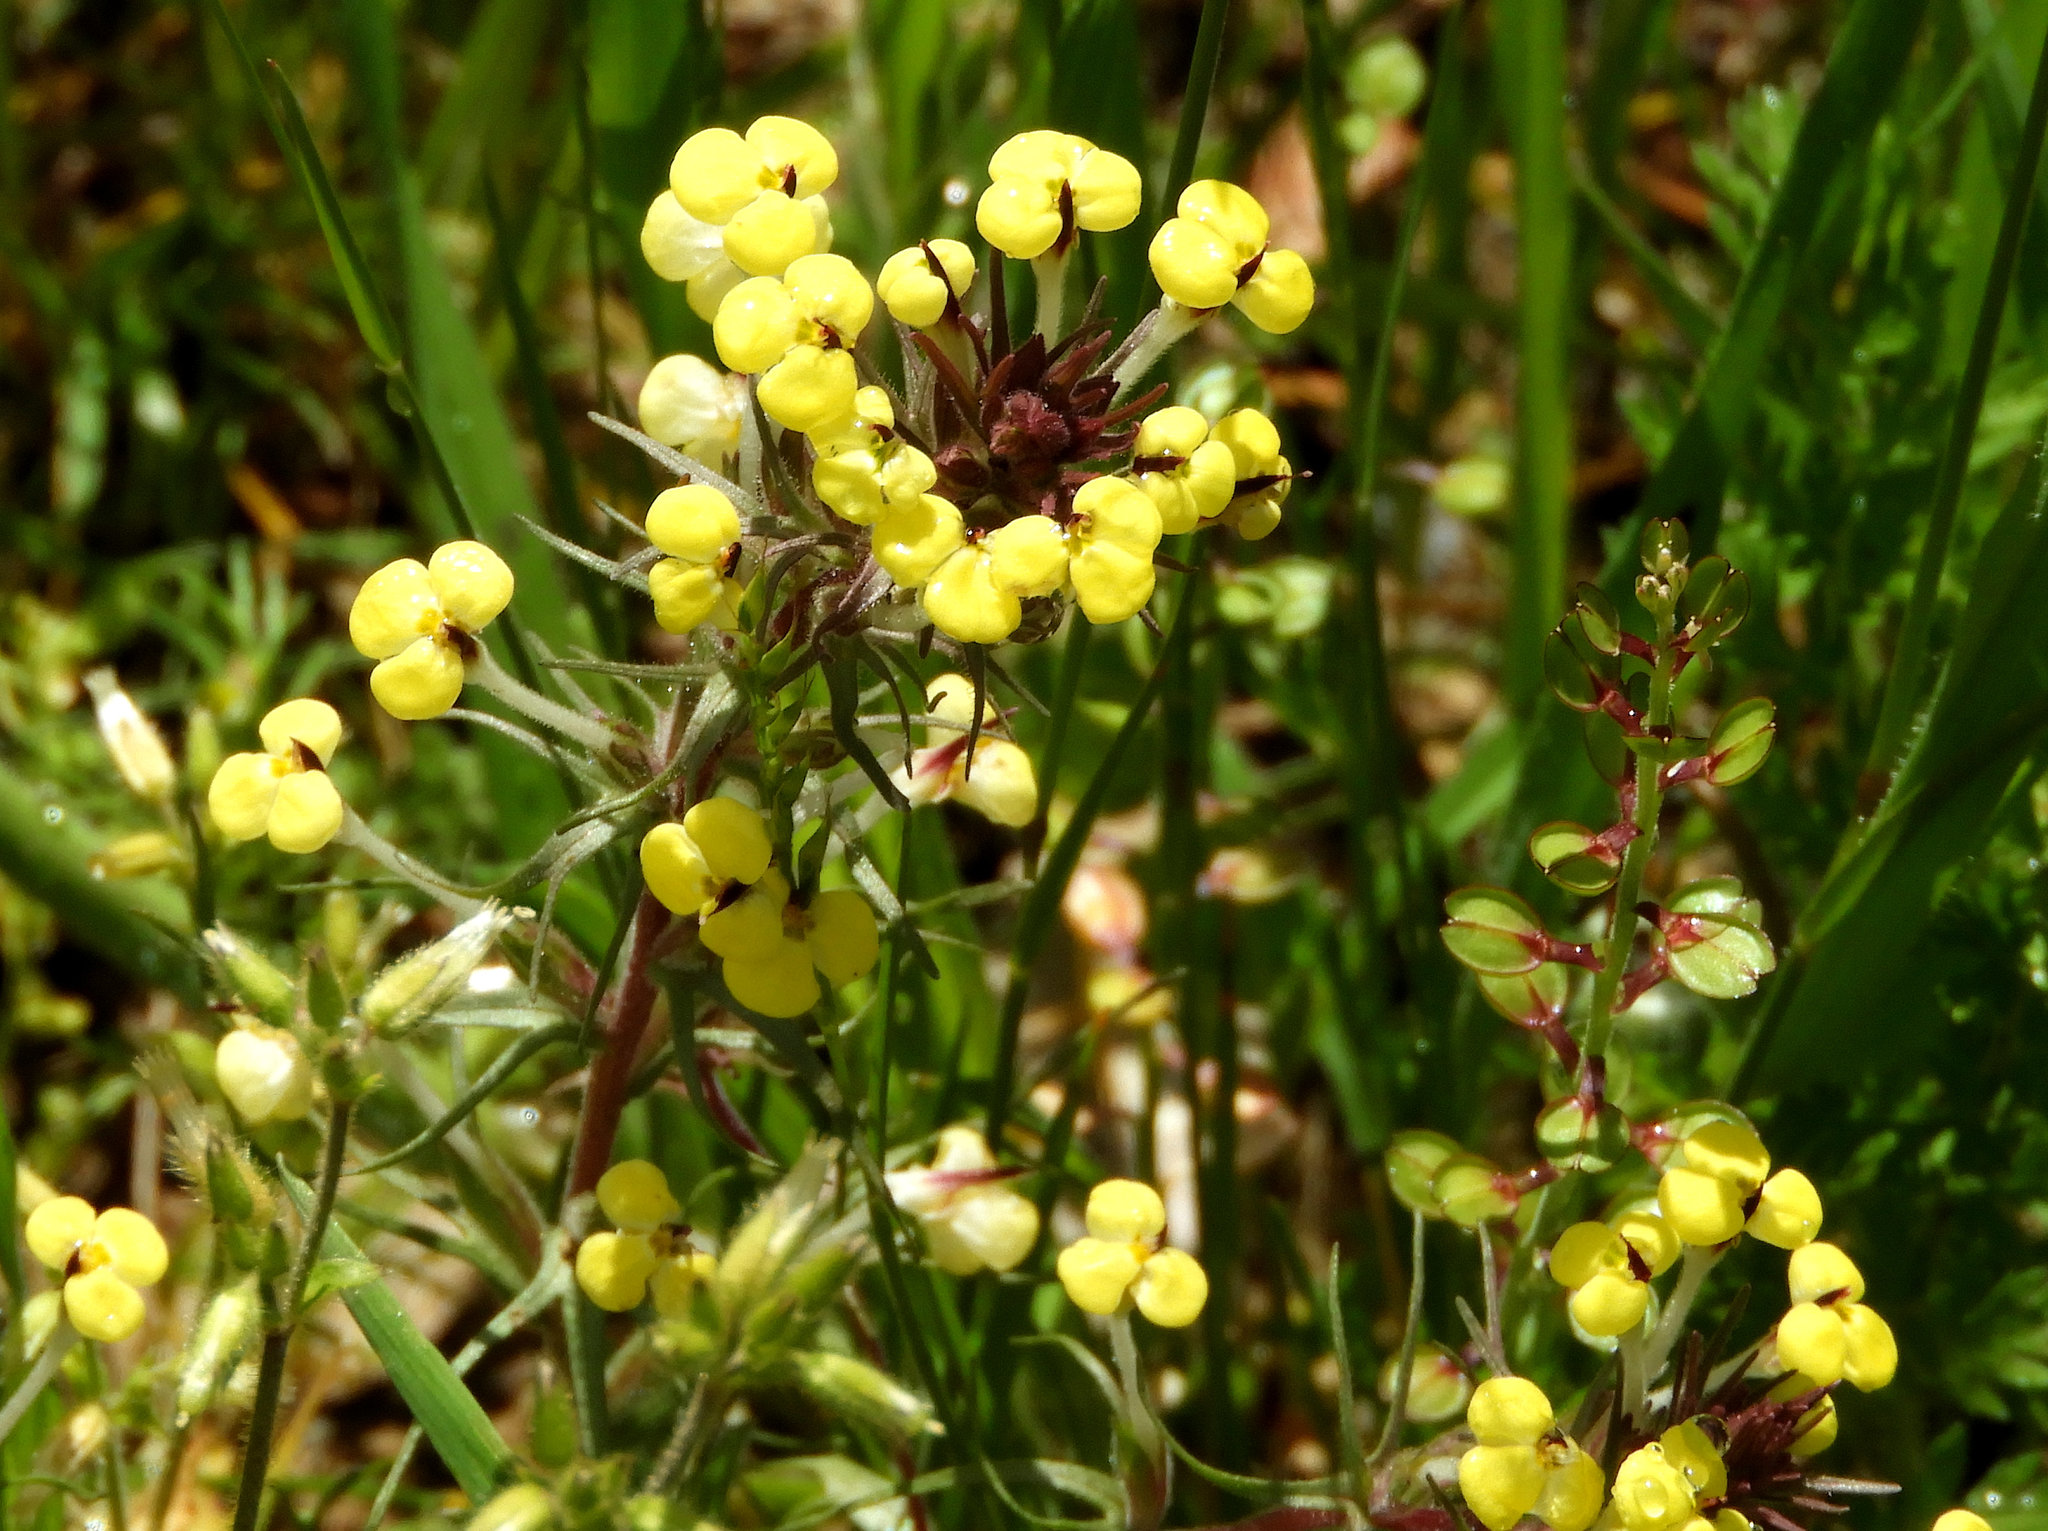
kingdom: Plantae
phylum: Tracheophyta
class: Magnoliopsida
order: Lamiales
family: Orobanchaceae
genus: Triphysaria
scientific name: Triphysaria eriantha
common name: Johnny-tuck
